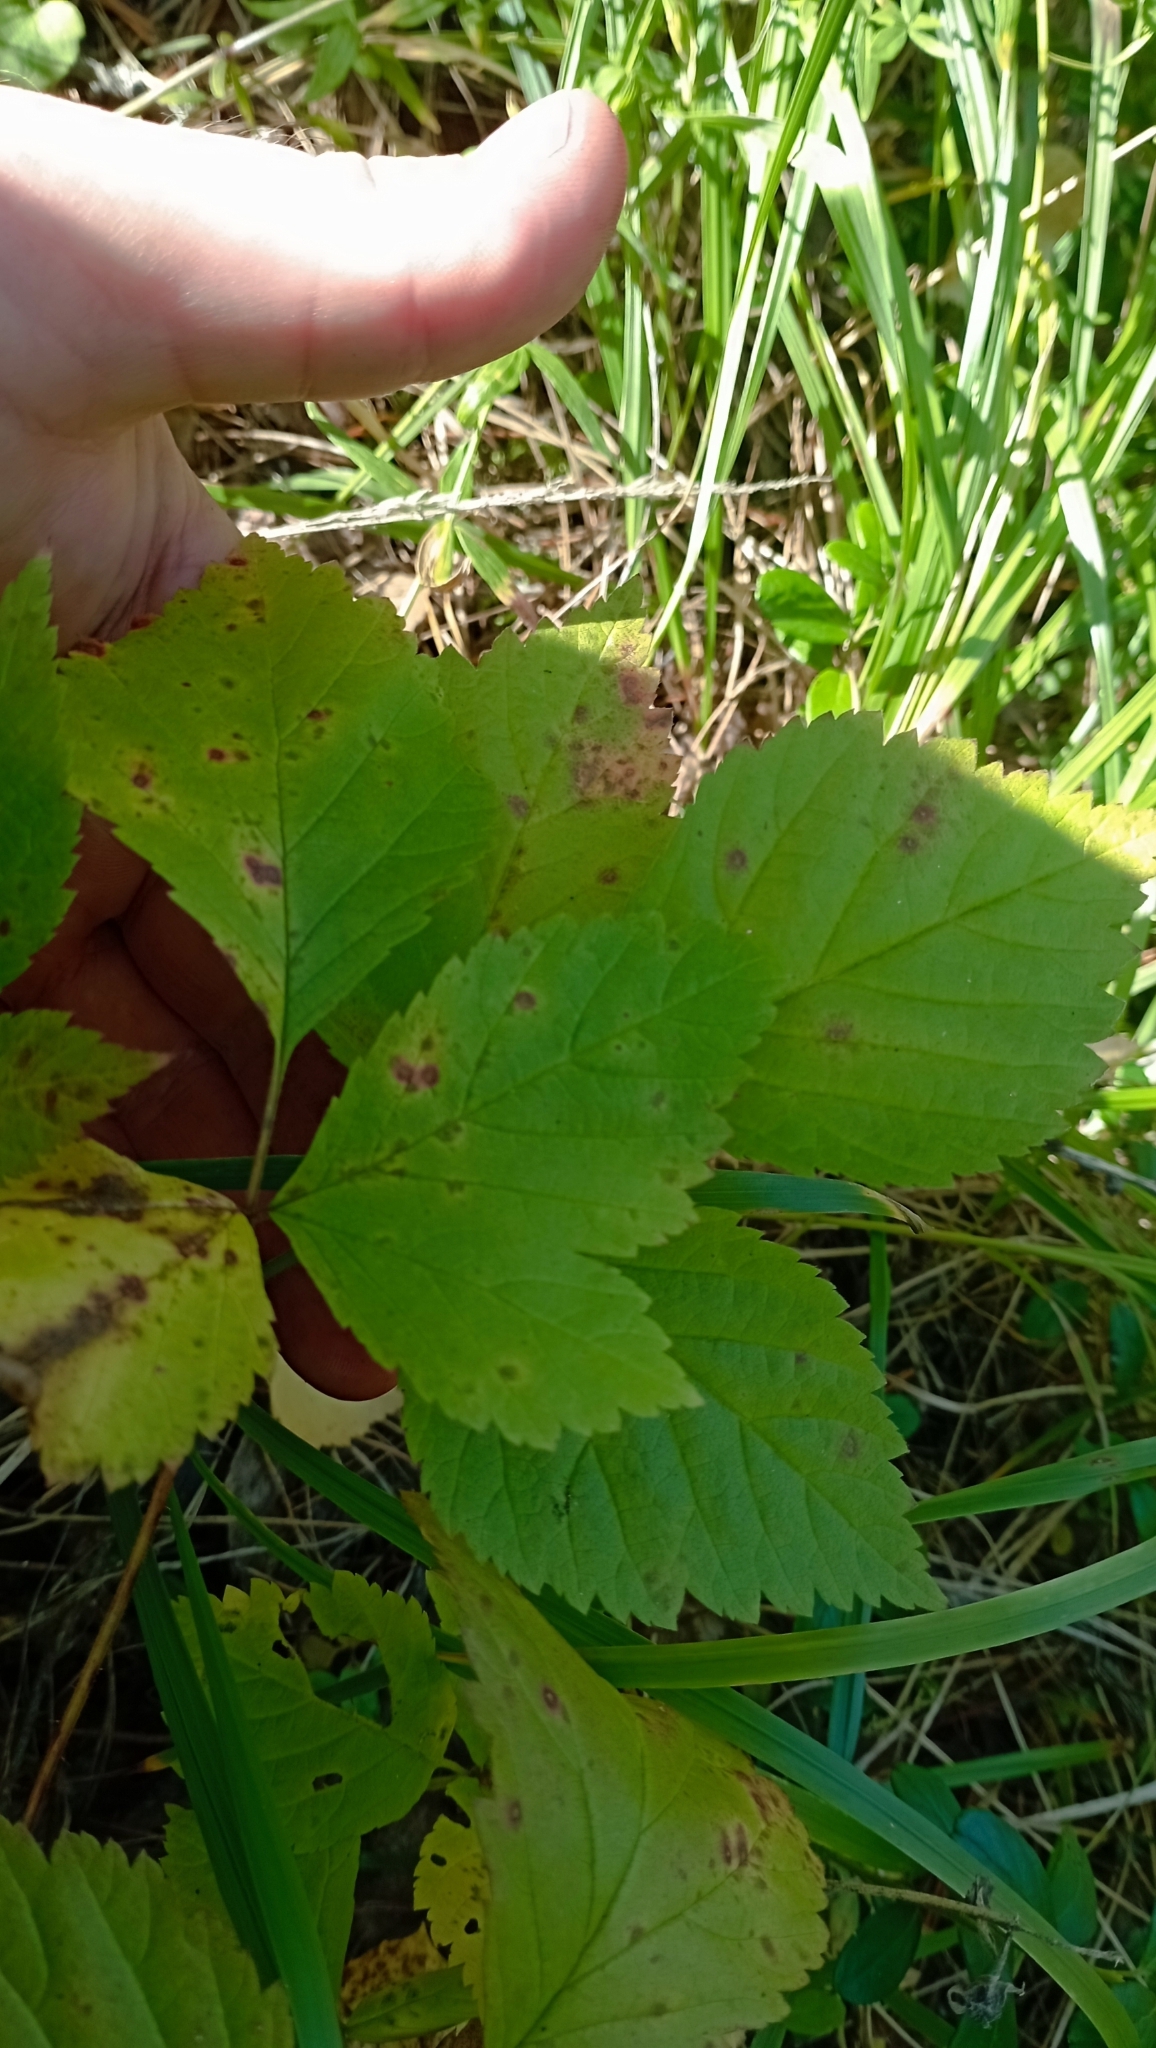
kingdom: Plantae
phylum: Tracheophyta
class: Magnoliopsida
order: Rosales
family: Rosaceae
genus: Rubus
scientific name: Rubus saxatilis
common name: Stone bramble
